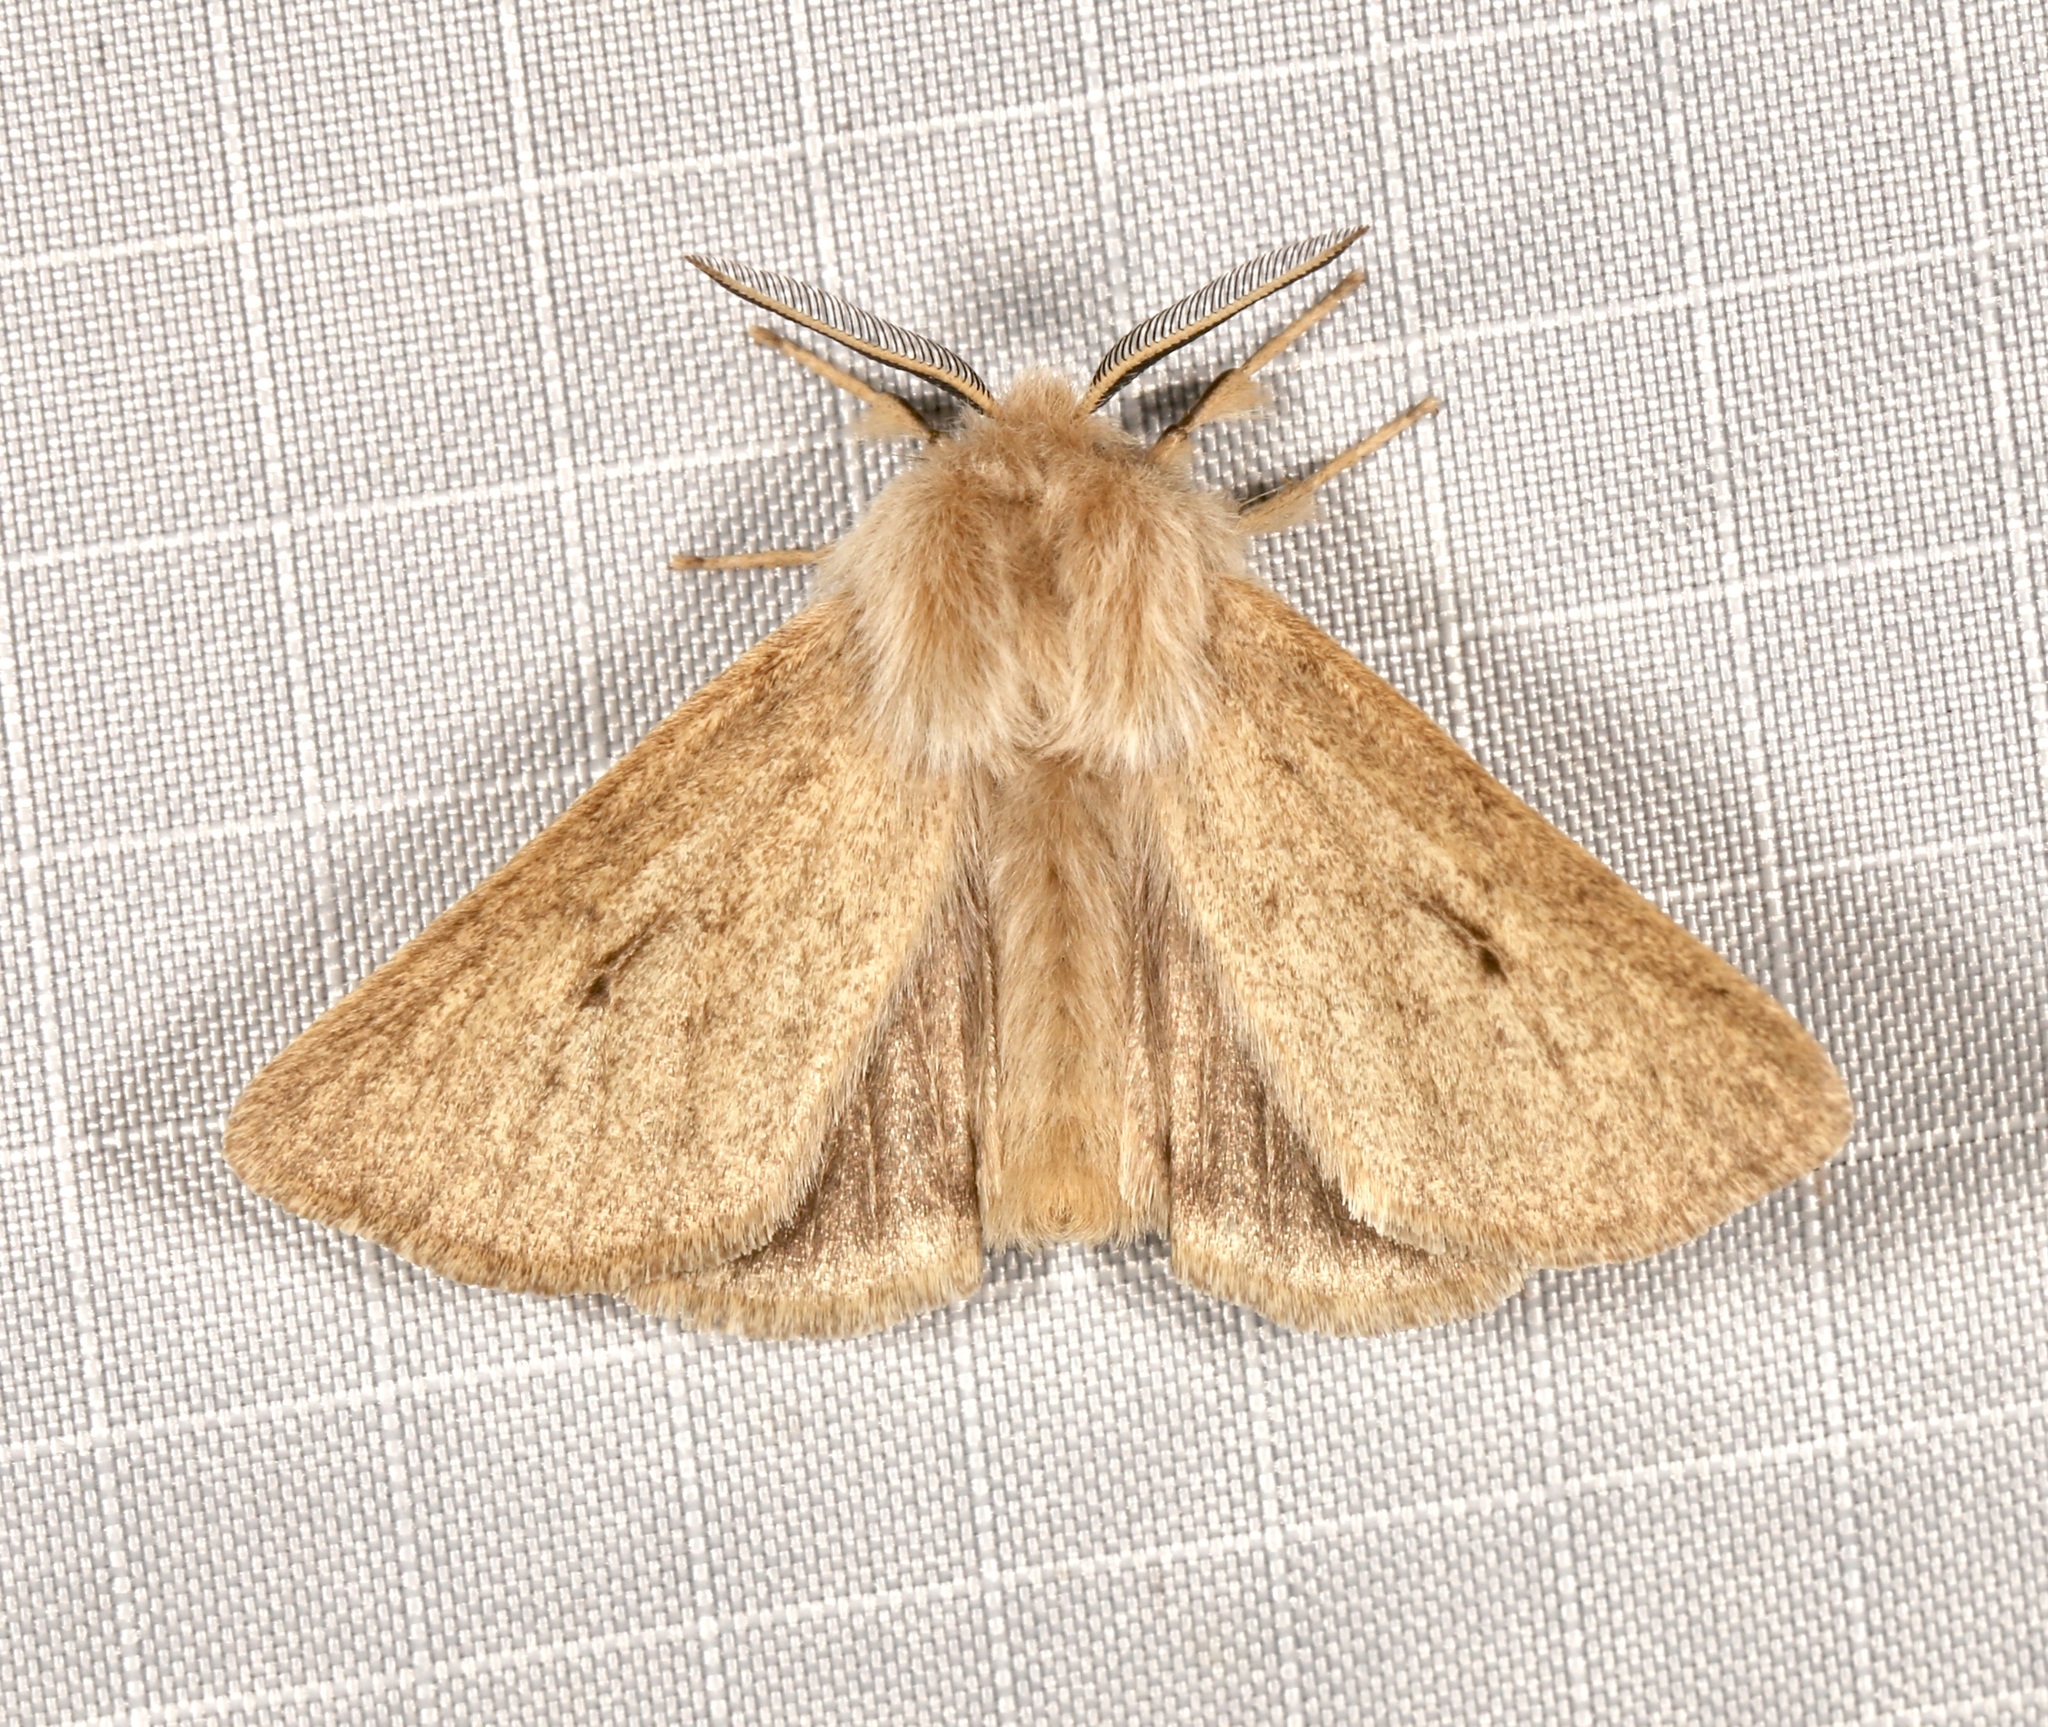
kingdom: Animalia
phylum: Arthropoda
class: Insecta
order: Lepidoptera
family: Erebidae
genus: Spilosoma
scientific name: Spilosoma vagans
